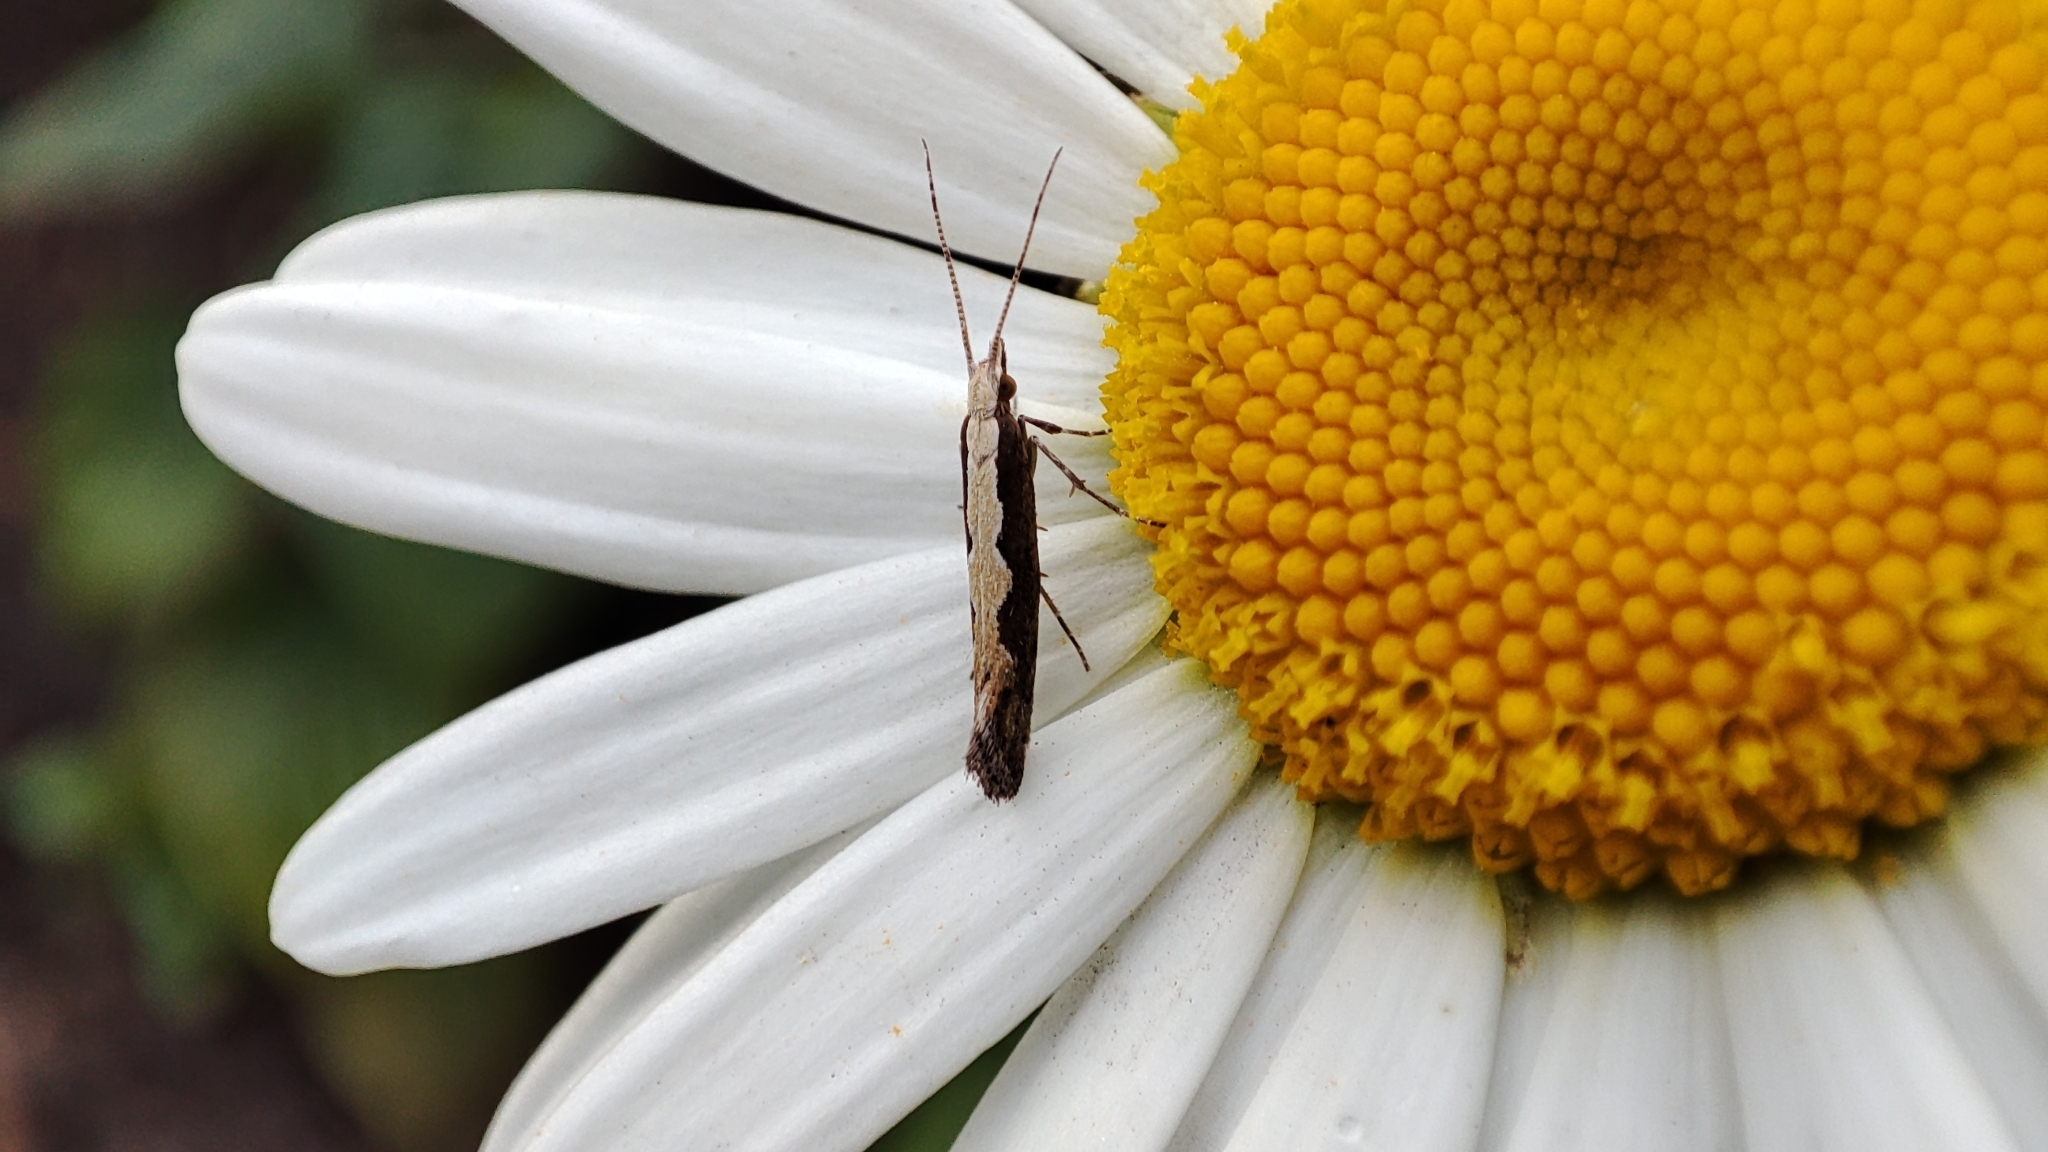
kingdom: Animalia
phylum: Arthropoda
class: Insecta
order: Lepidoptera
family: Plutellidae
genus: Plutella
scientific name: Plutella xylostella
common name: Diamond-back moth
